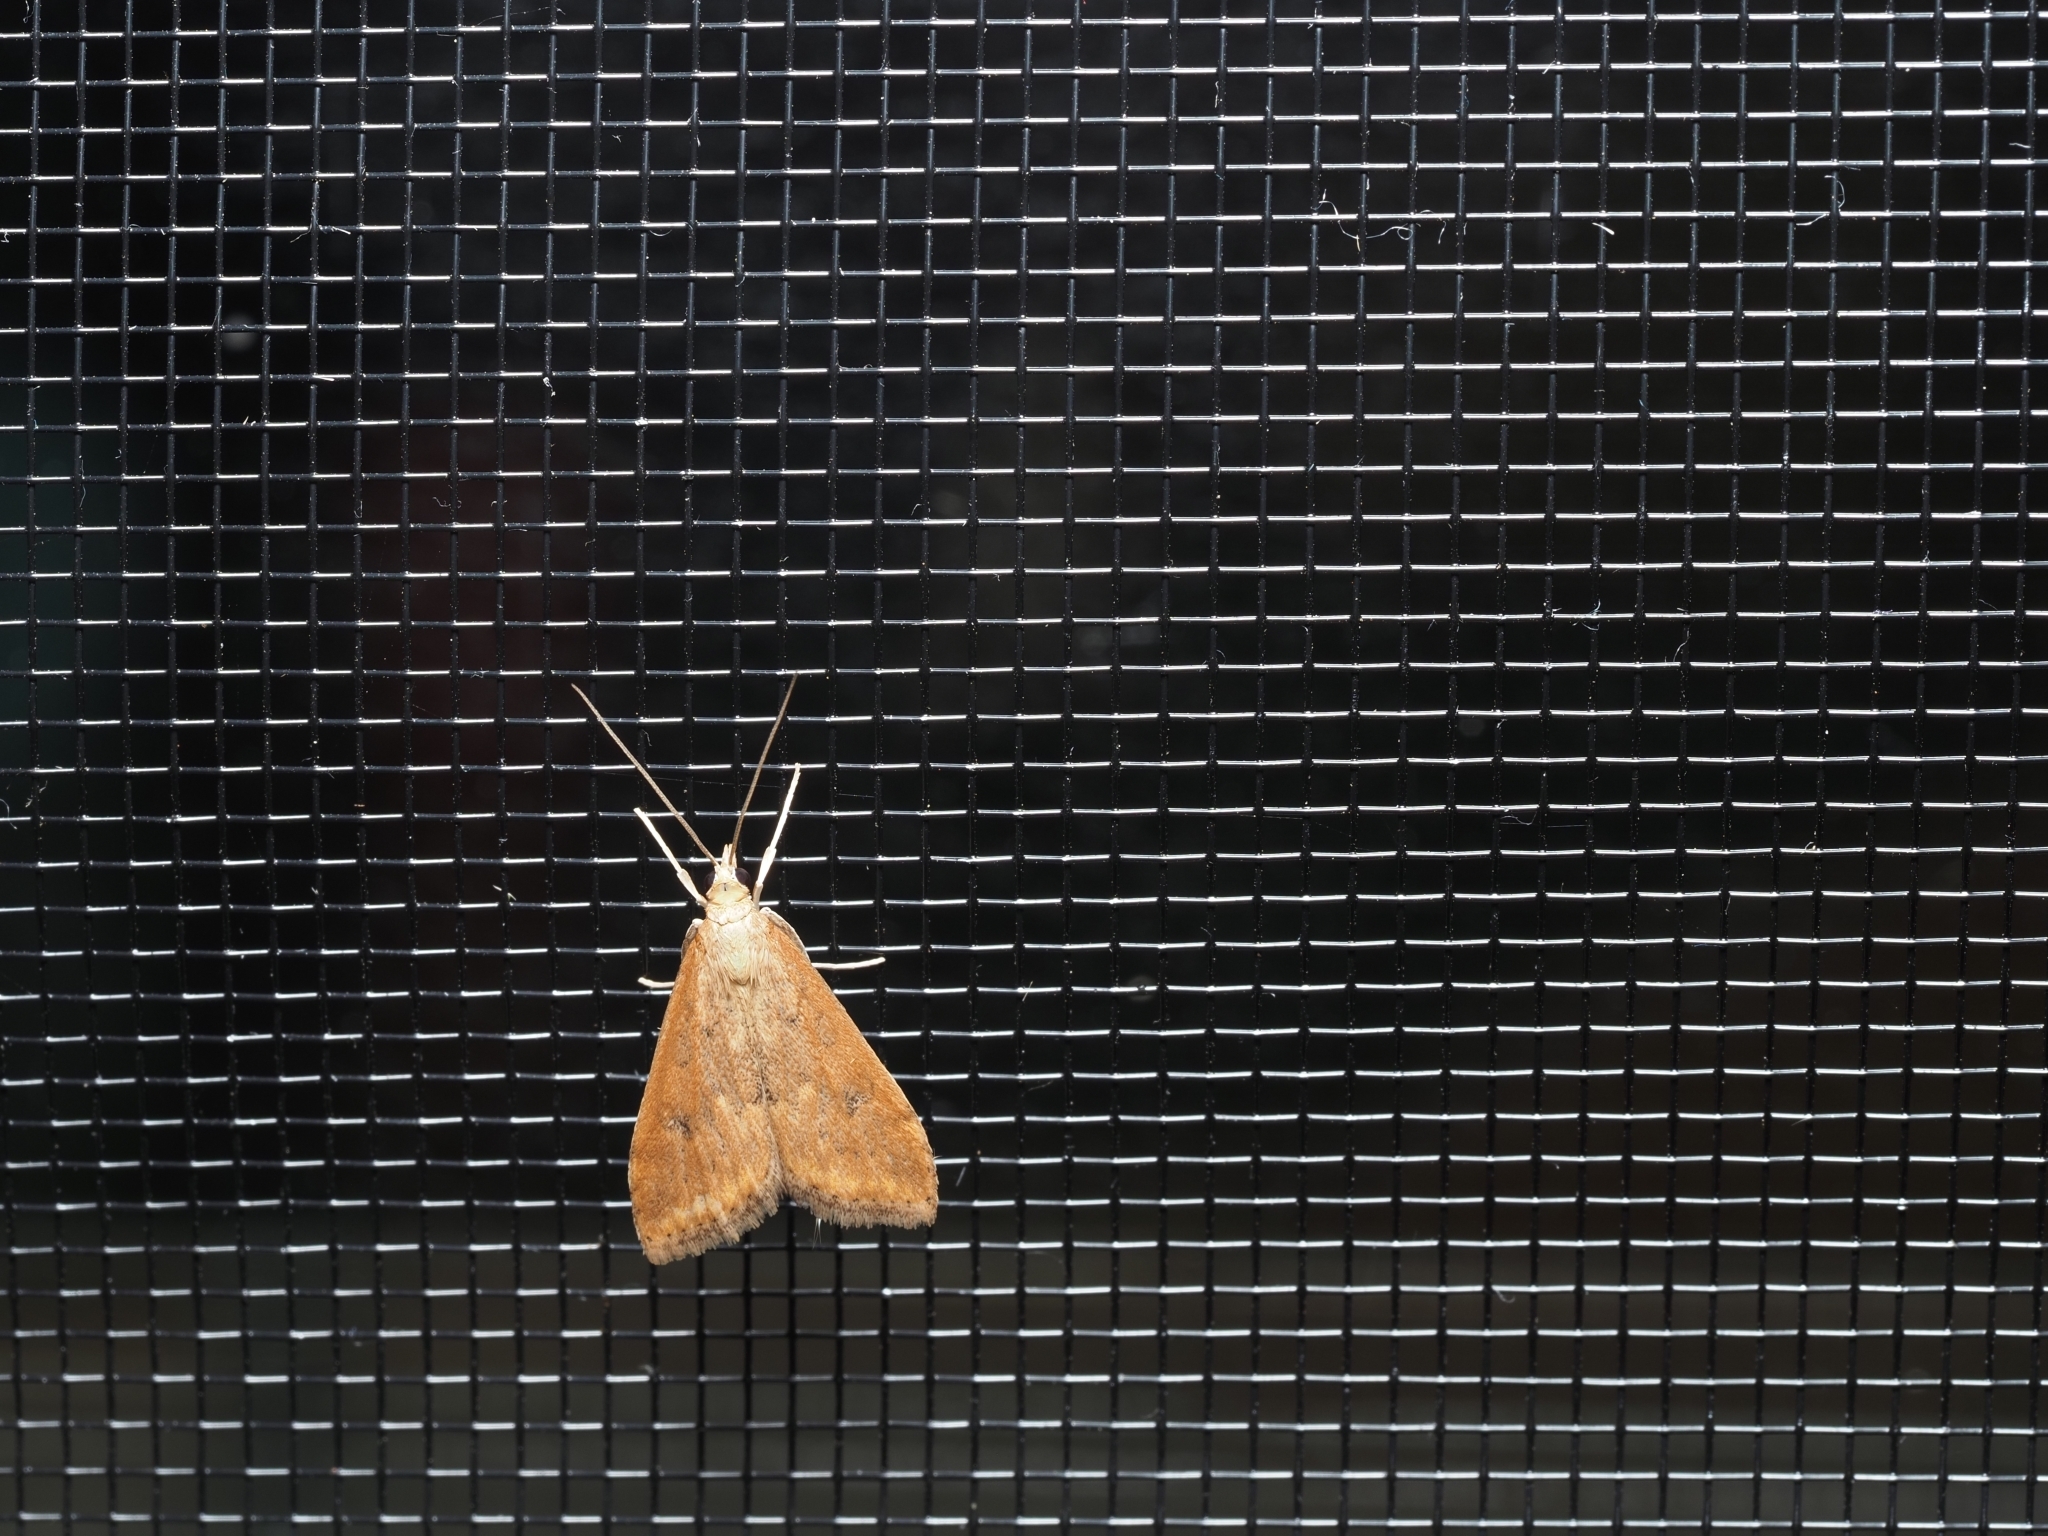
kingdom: Animalia
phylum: Arthropoda
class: Insecta
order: Lepidoptera
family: Crambidae
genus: Udea
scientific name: Udea ferrugalis
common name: Rusty dot
